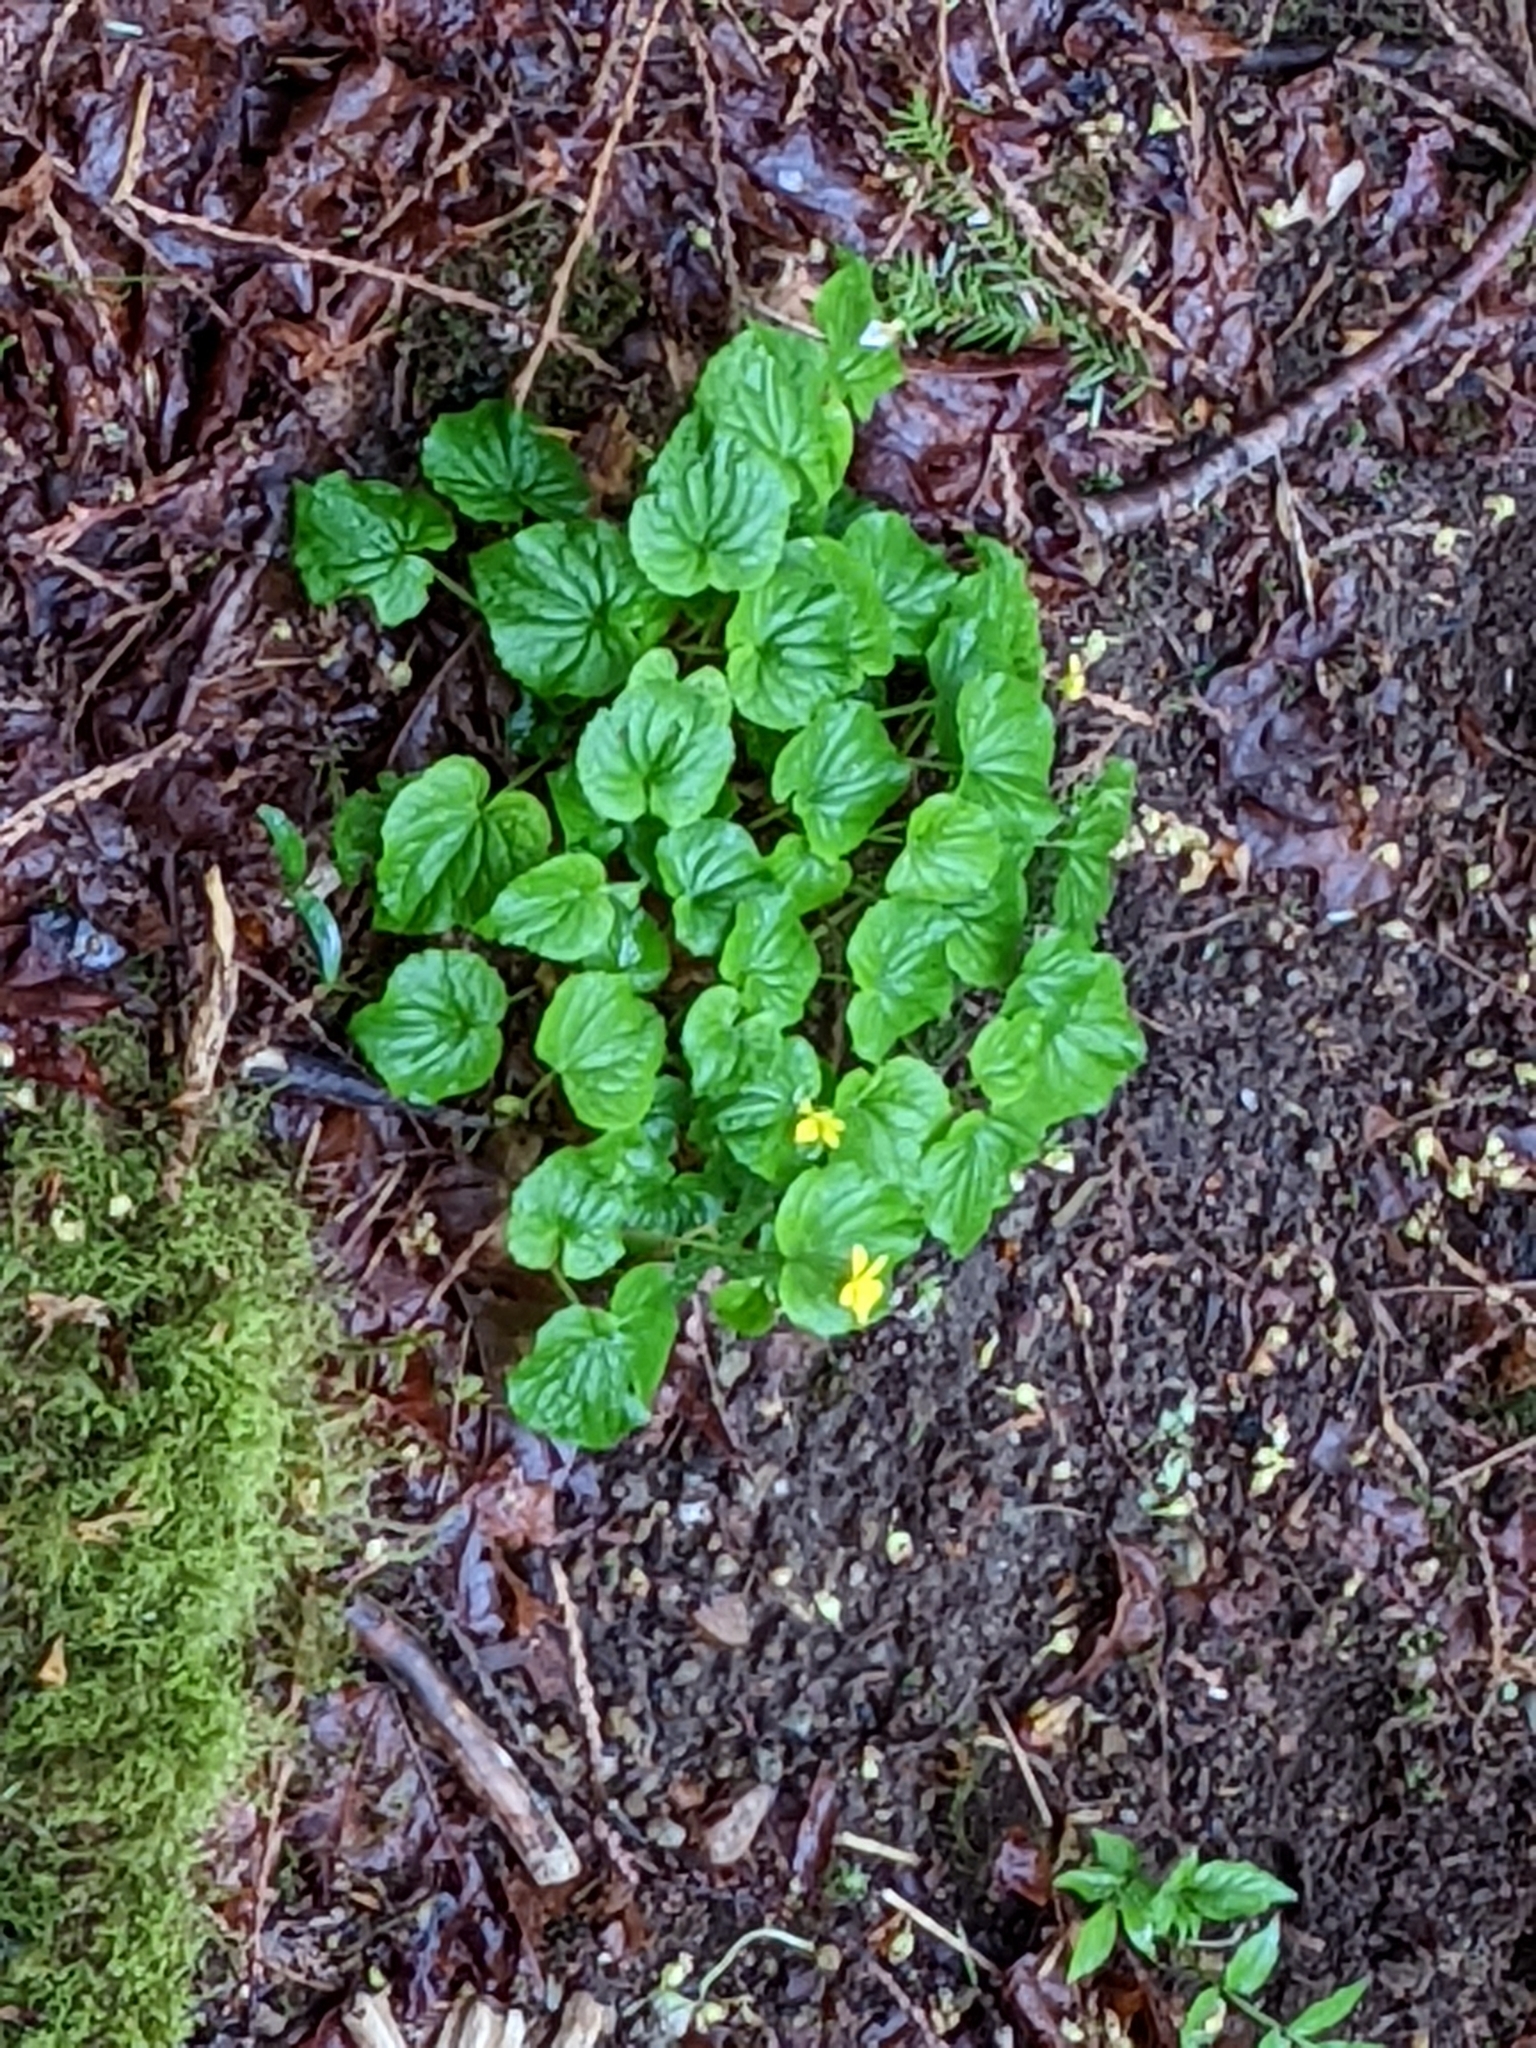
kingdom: Plantae
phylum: Tracheophyta
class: Magnoliopsida
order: Malpighiales
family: Violaceae
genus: Viola
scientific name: Viola glabella
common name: Stream violet
